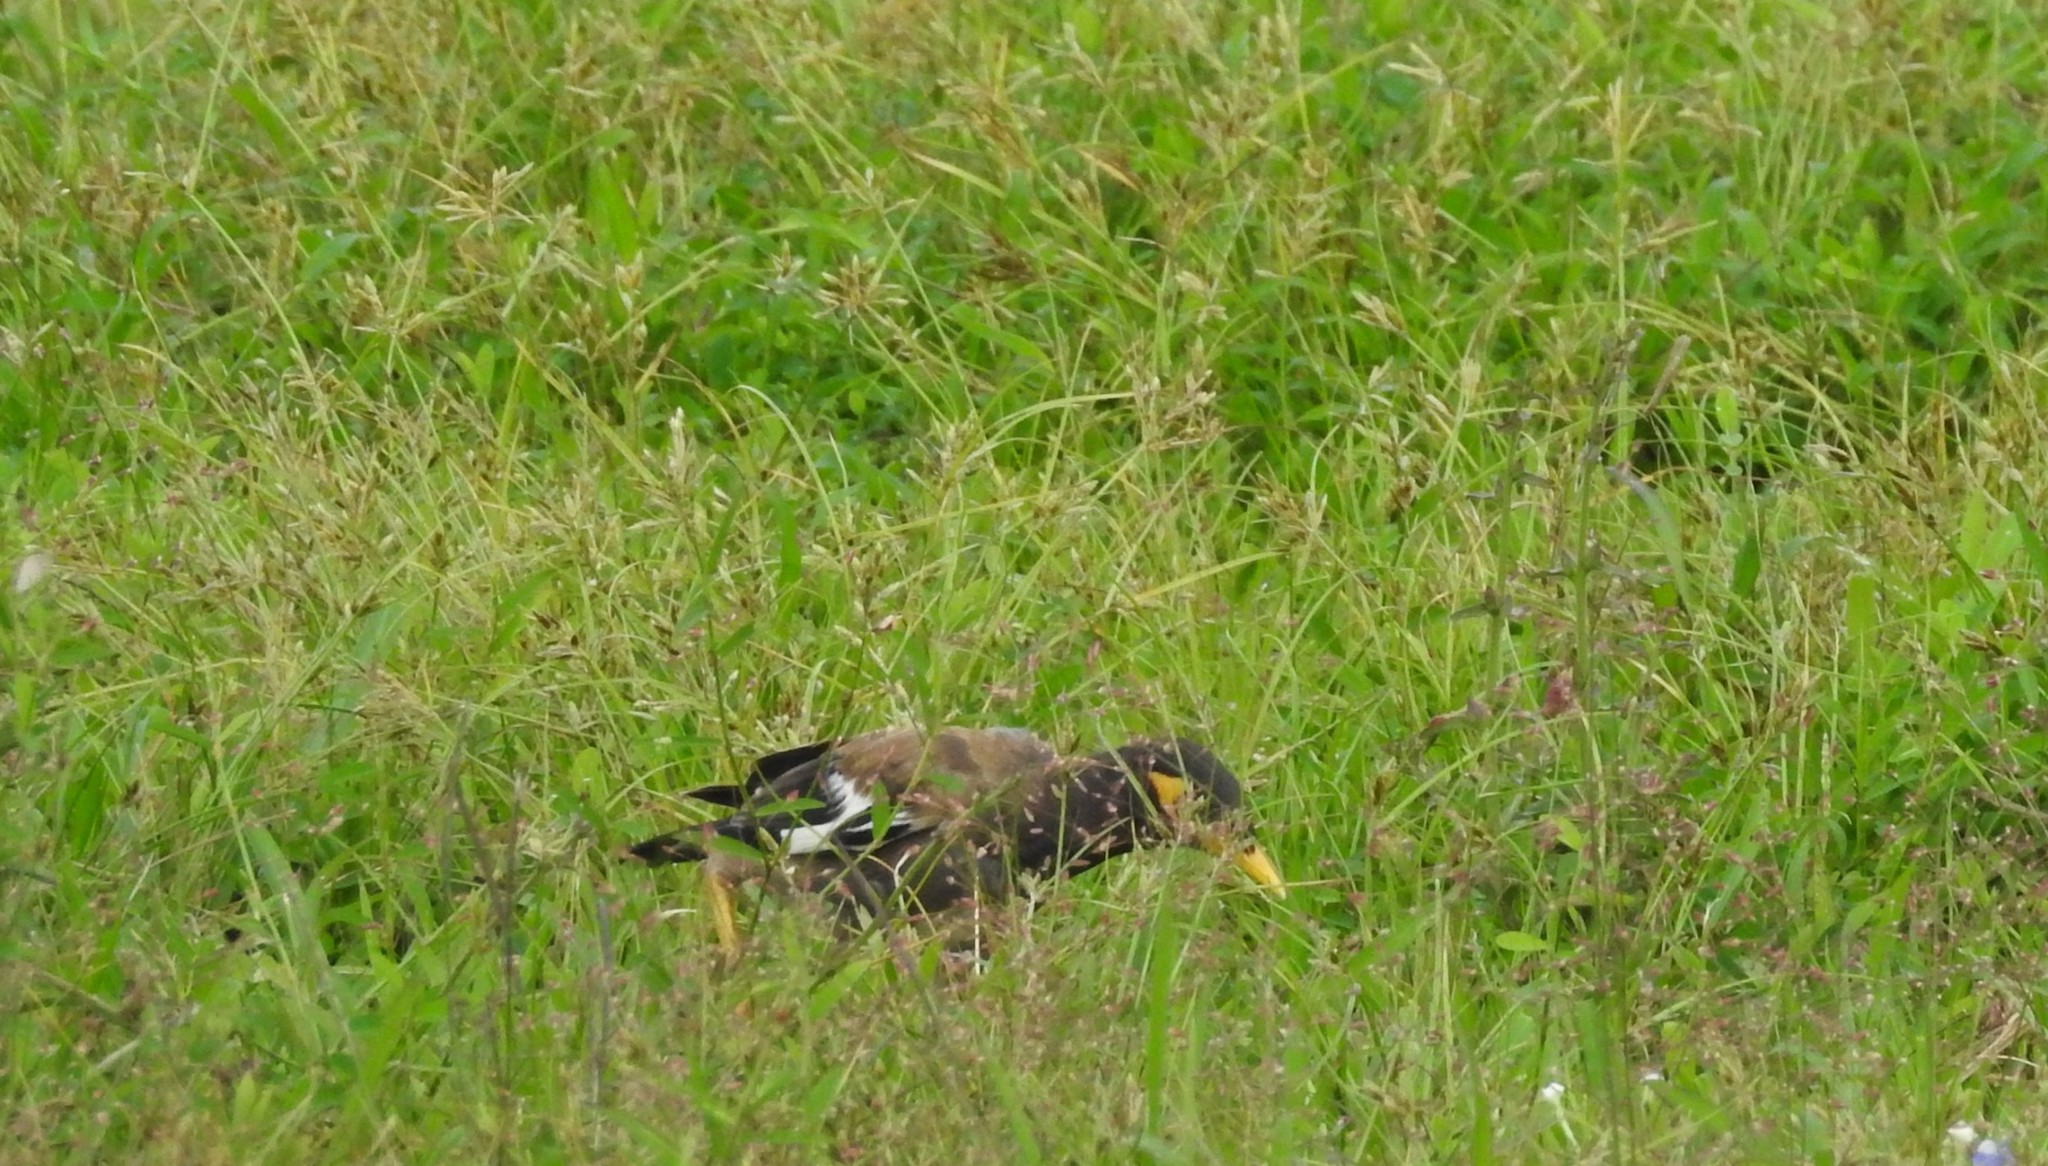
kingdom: Animalia
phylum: Chordata
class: Aves
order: Passeriformes
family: Sturnidae
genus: Acridotheres
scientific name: Acridotheres tristis
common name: Common myna
